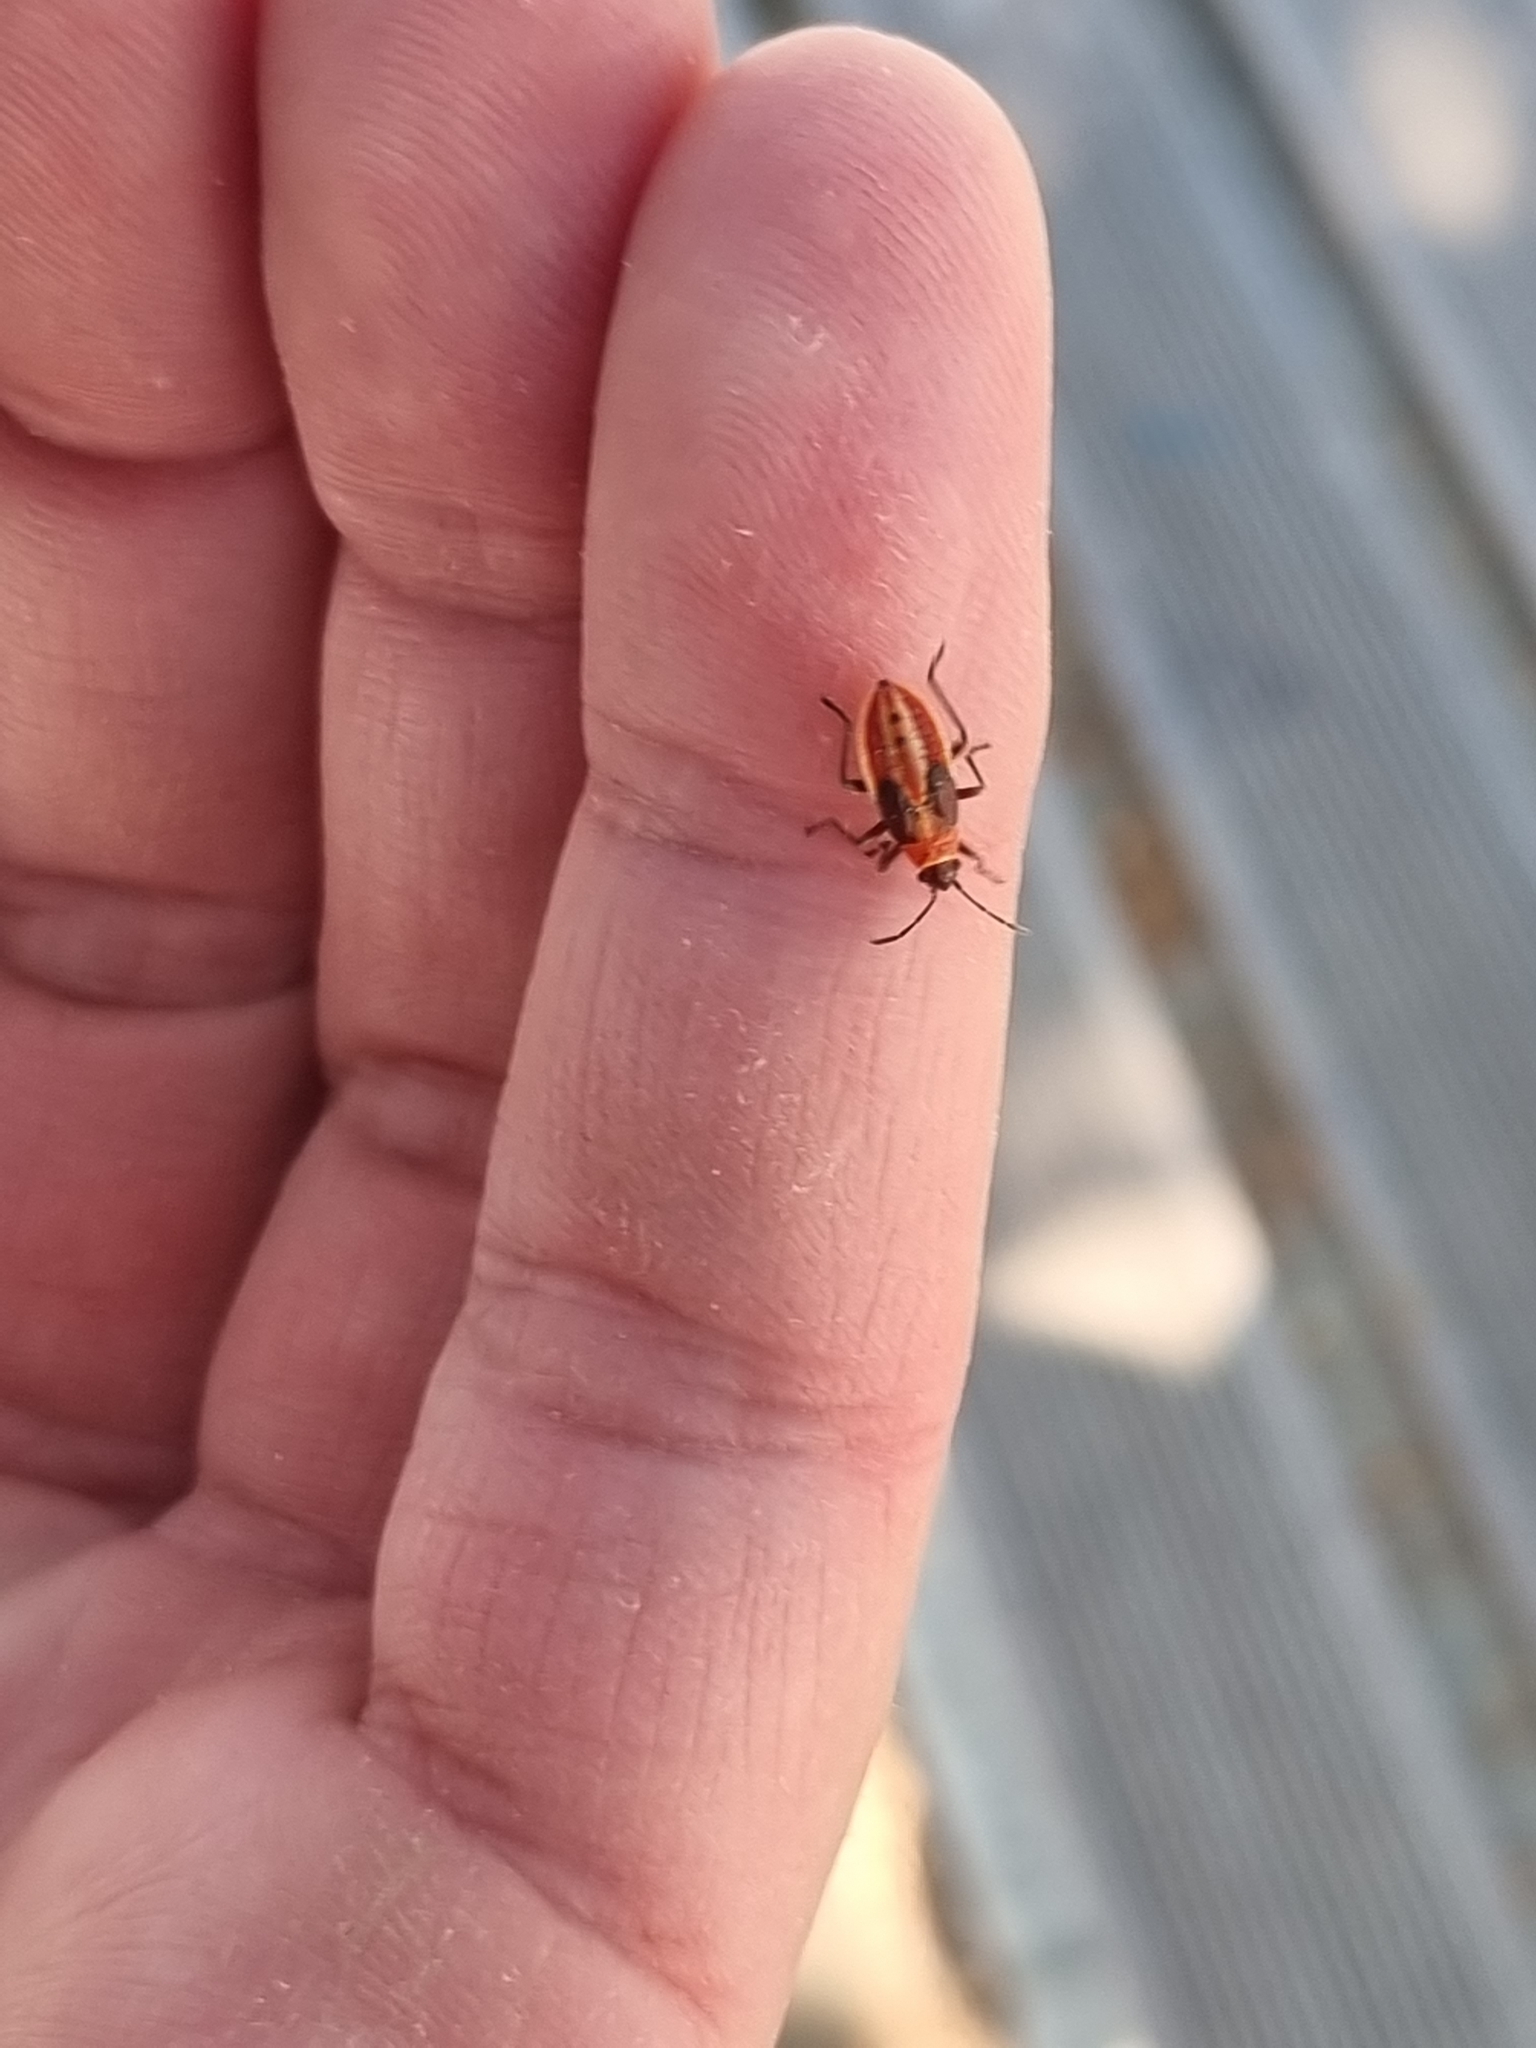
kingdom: Animalia
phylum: Arthropoda
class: Insecta
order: Hemiptera
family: Lygaeidae
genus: Lygaeus
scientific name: Lygaeus creticus
